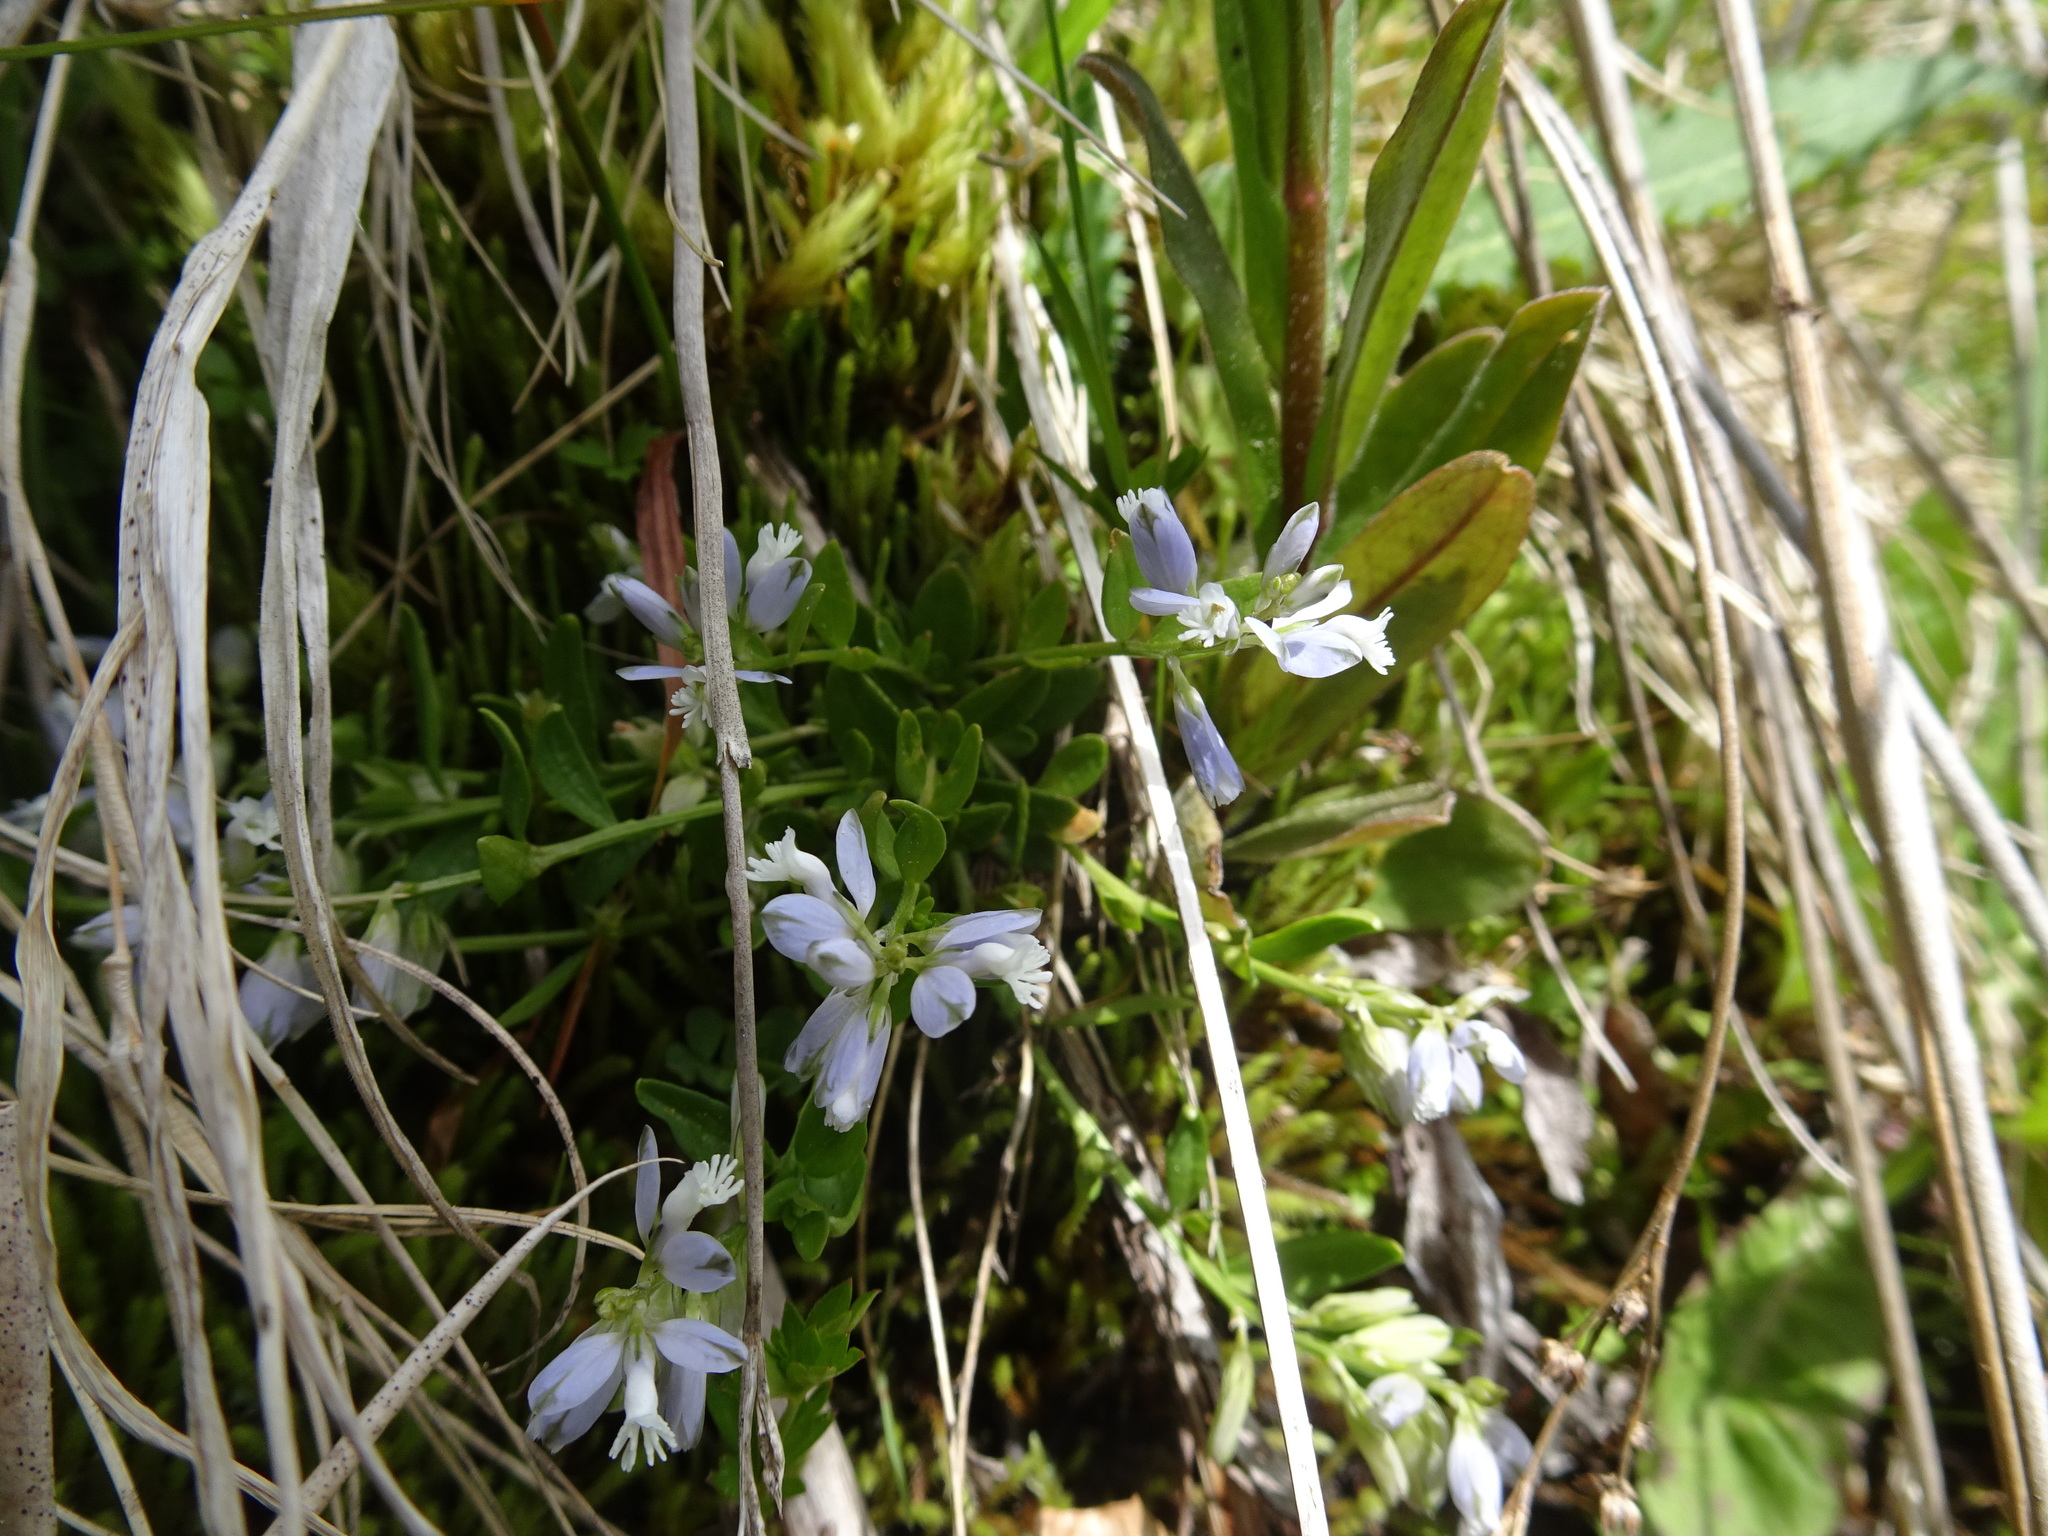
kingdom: Plantae
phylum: Tracheophyta
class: Magnoliopsida
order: Fabales
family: Polygalaceae
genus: Polygala
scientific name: Polygala serpyllifolia
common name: Heath milkwort
